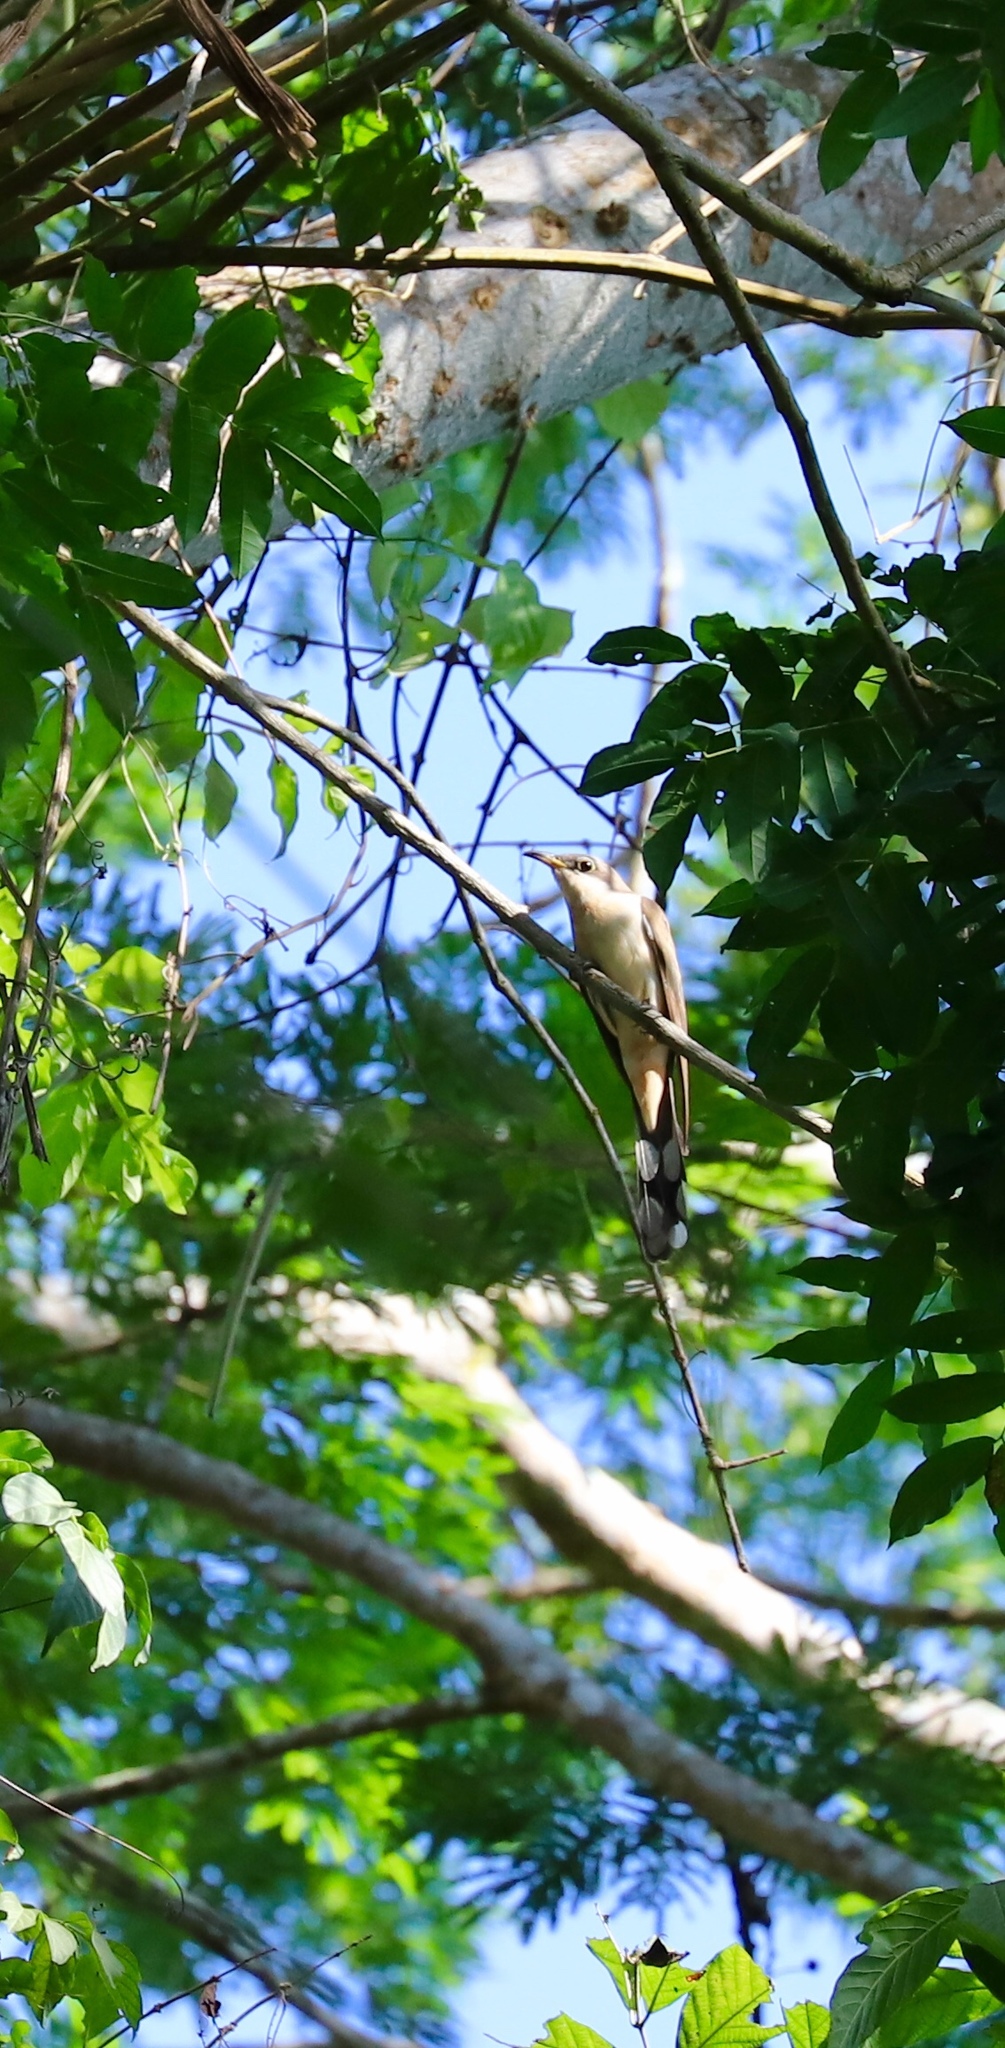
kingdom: Animalia
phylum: Chordata
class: Aves
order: Cuculiformes
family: Cuculidae
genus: Coccyzus
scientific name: Coccyzus euleri
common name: Pearly-breasted cuckoo
